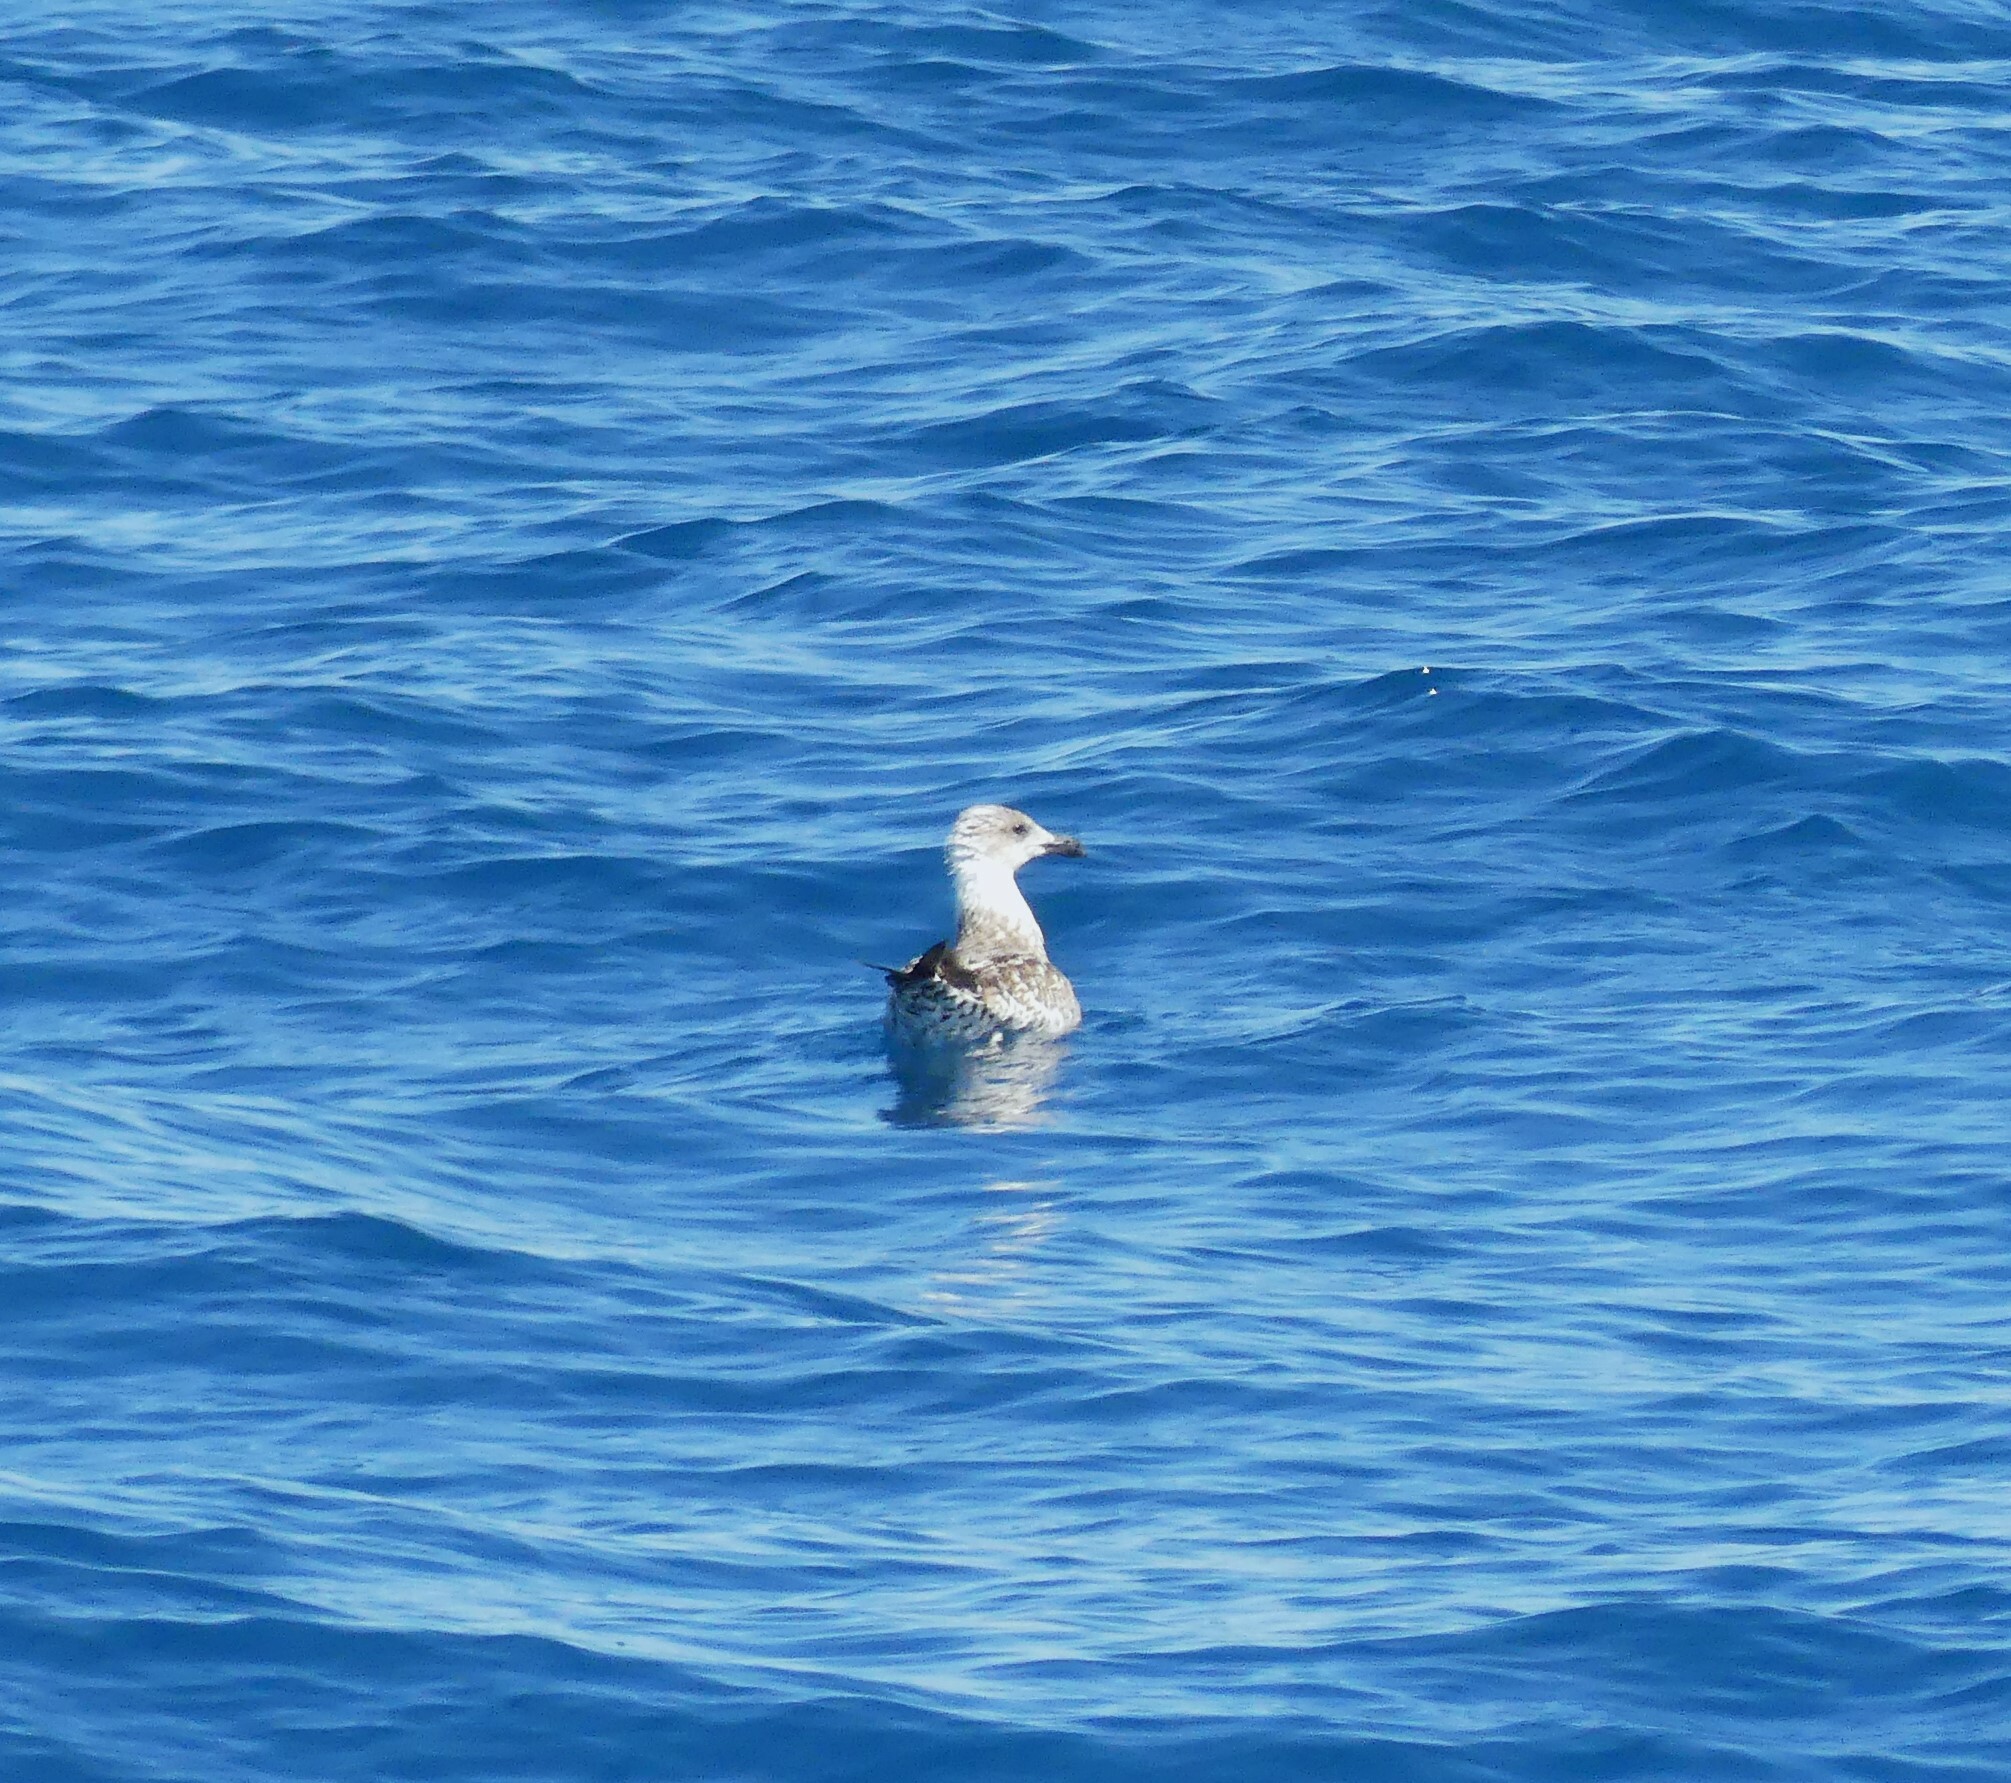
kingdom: Animalia
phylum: Chordata
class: Aves
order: Charadriiformes
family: Laridae
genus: Larus
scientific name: Larus michahellis
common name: Yellow-legged gull
